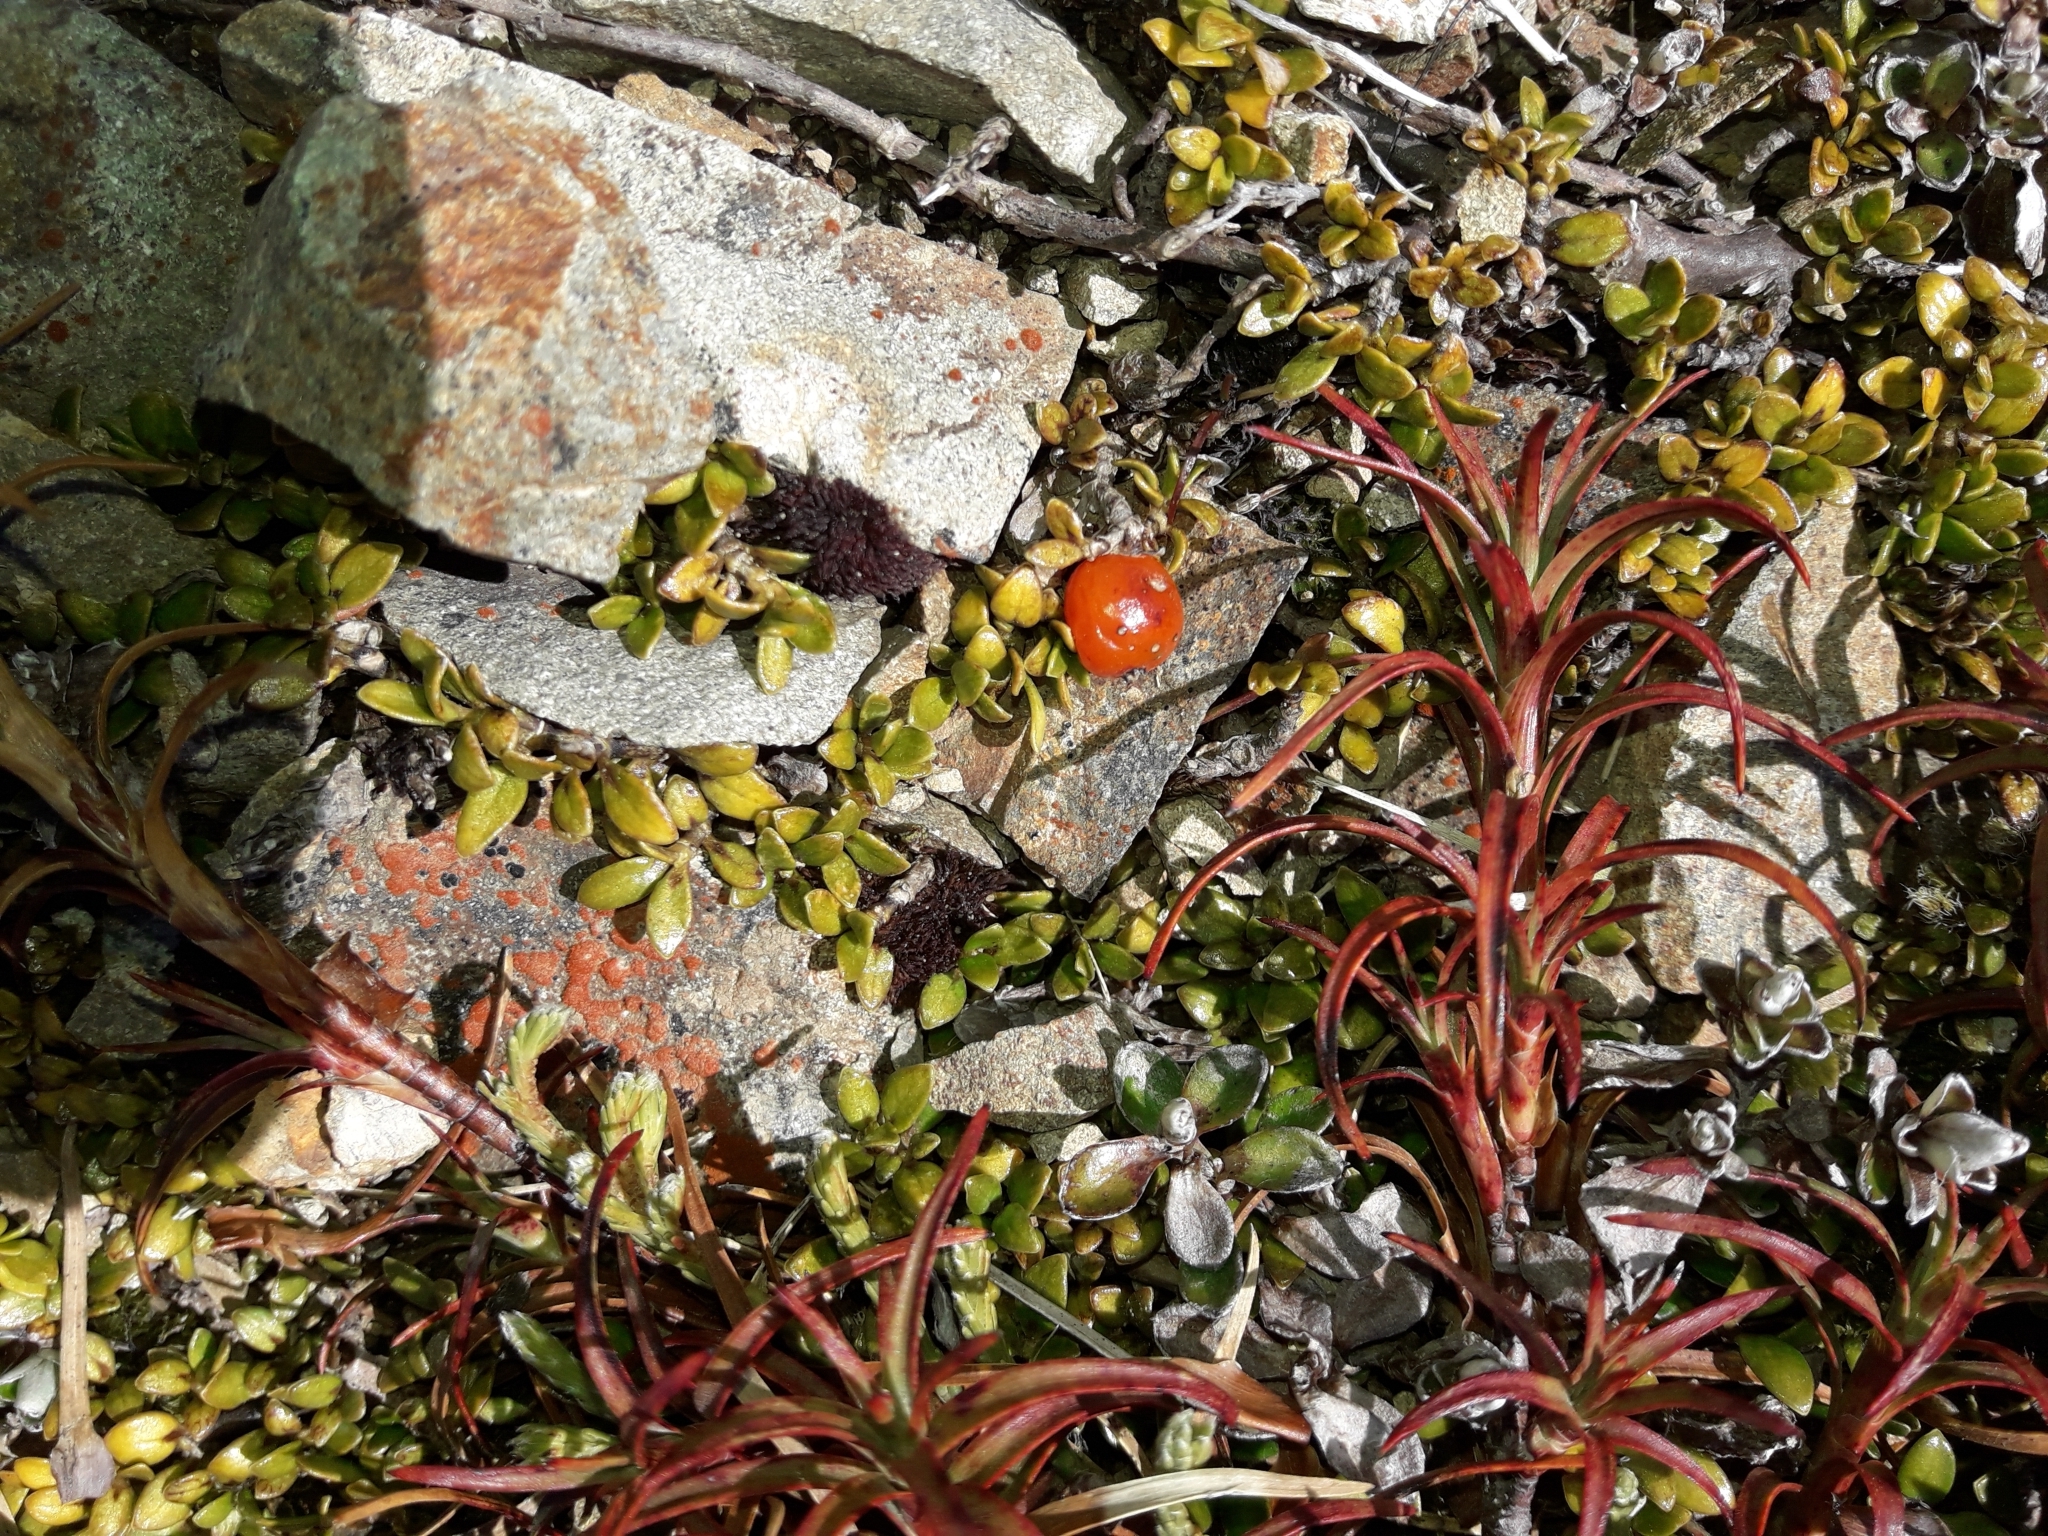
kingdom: Plantae
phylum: Tracheophyta
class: Magnoliopsida
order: Gentianales
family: Rubiaceae
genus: Coprosma
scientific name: Coprosma perpusilla
